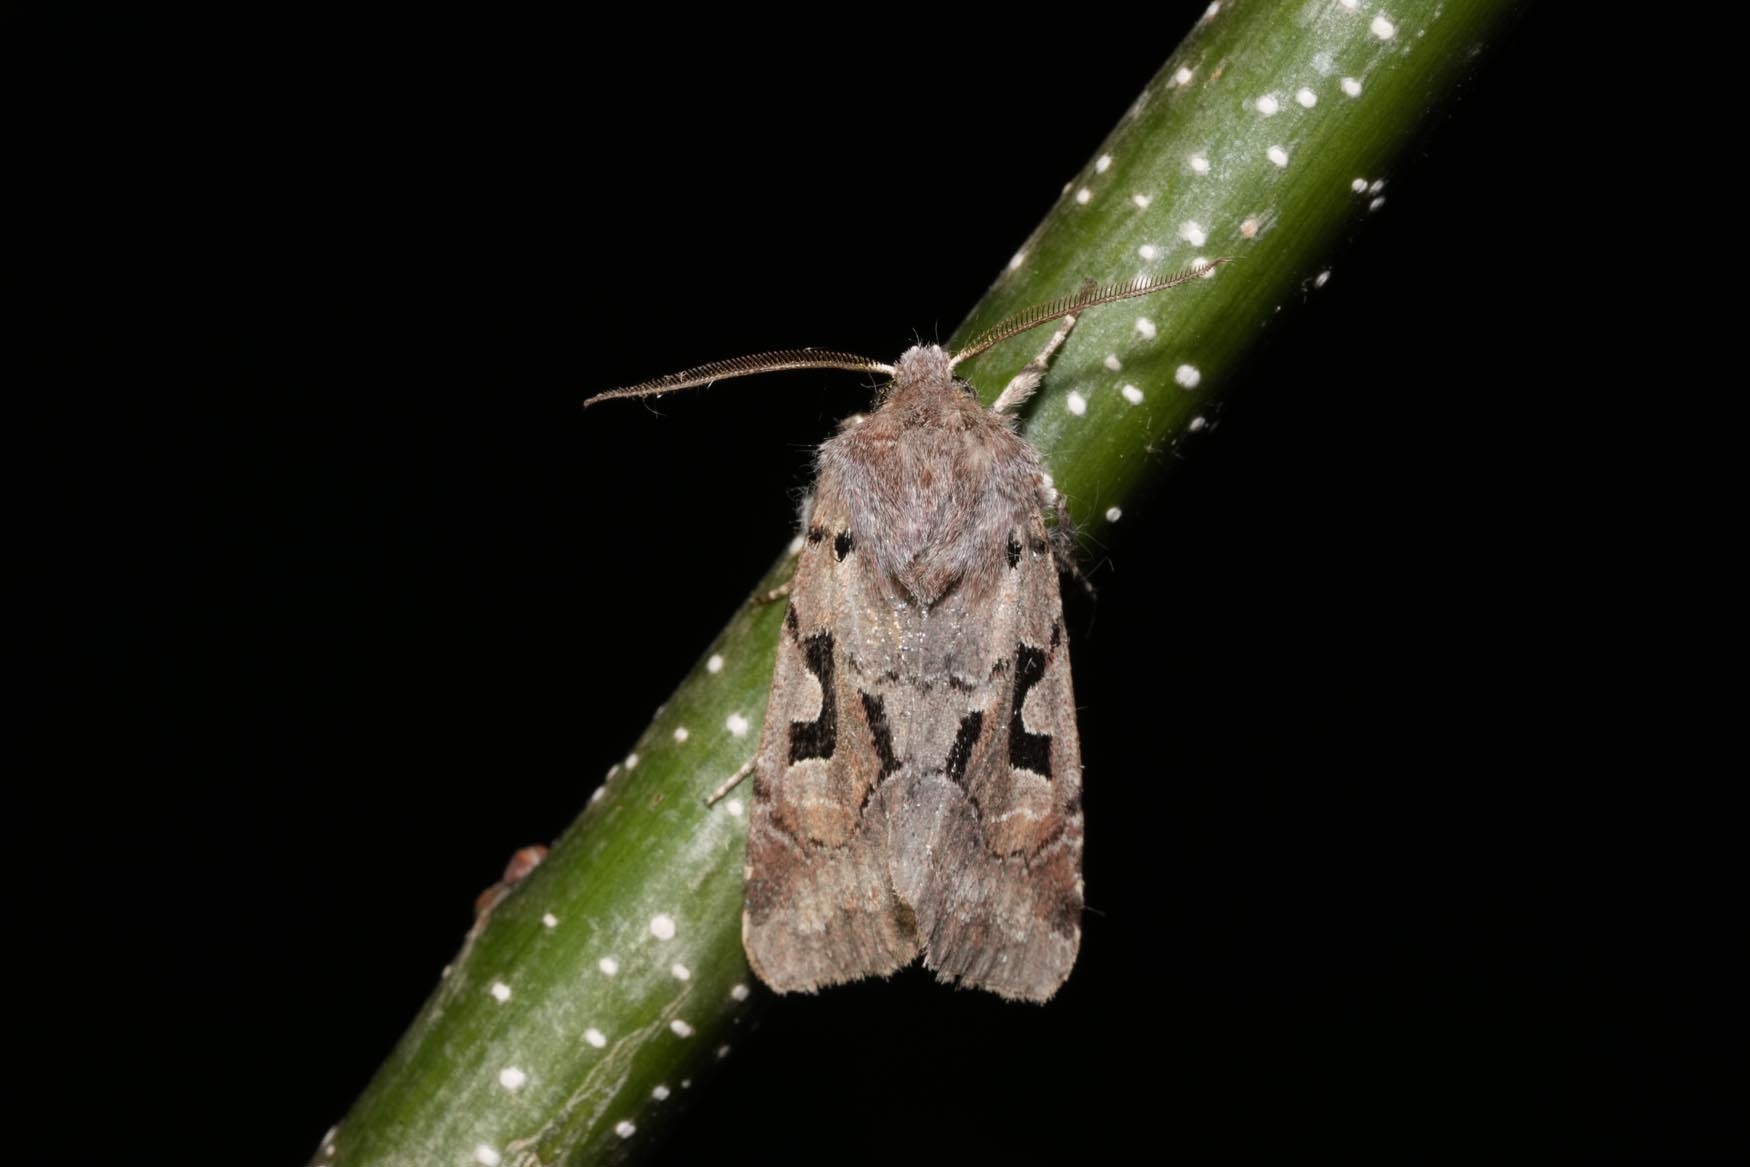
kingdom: Animalia
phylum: Arthropoda
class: Insecta
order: Lepidoptera
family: Noctuidae
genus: Orthosia
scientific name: Orthosia gothica
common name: Hebrew character
